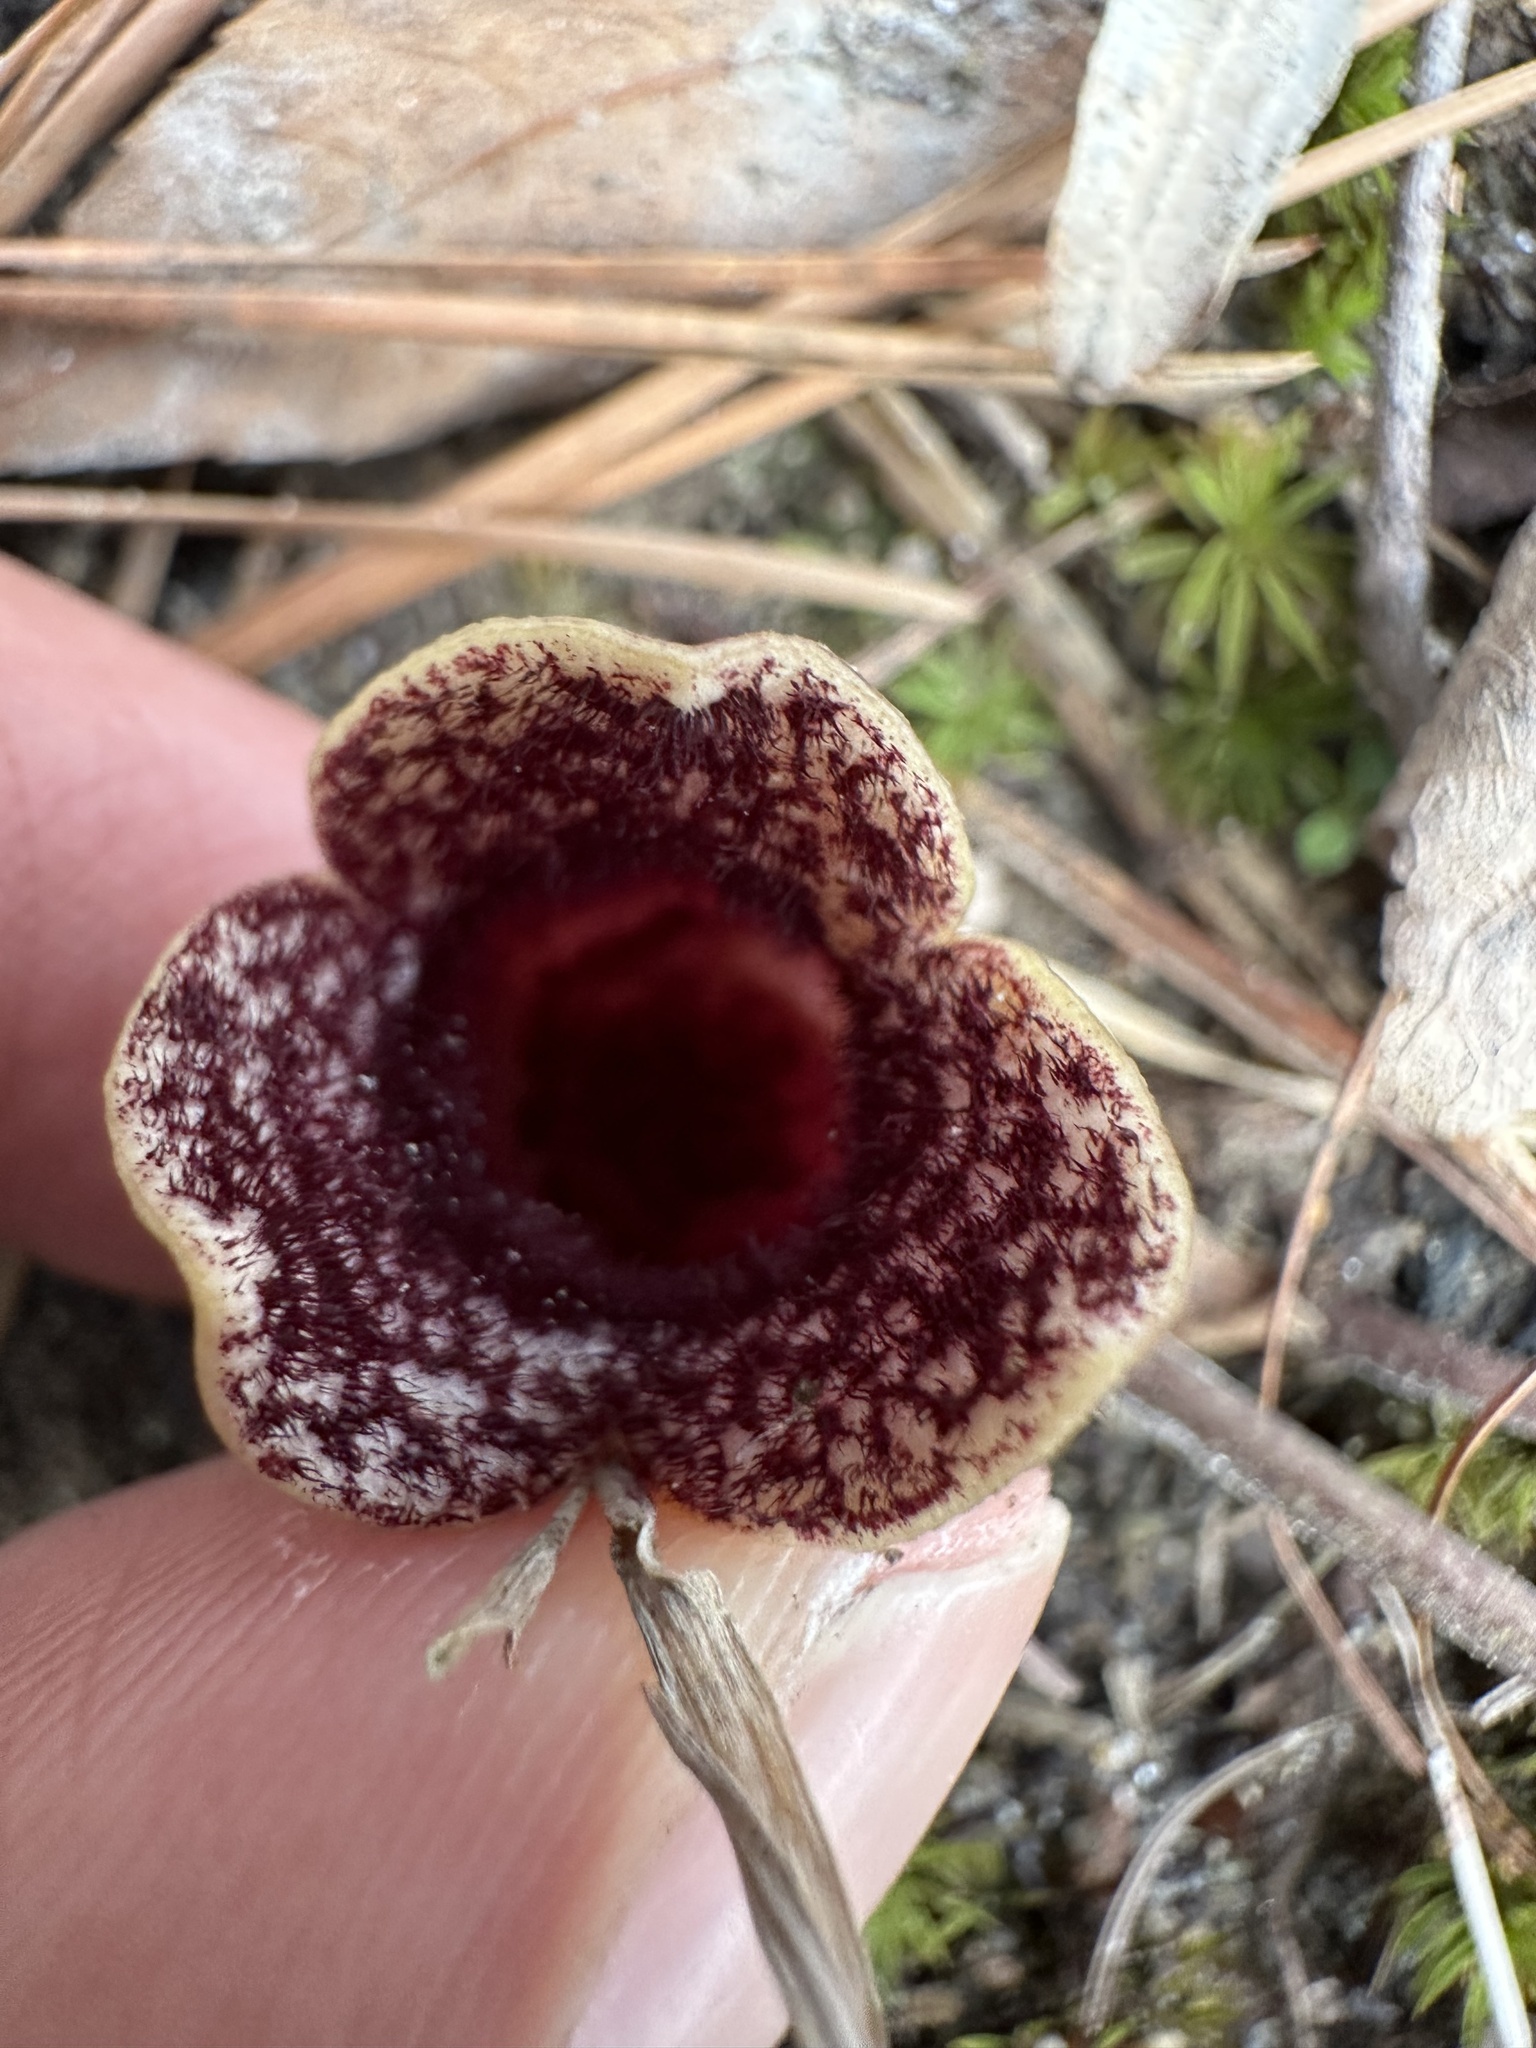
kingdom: Plantae
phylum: Tracheophyta
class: Magnoliopsida
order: Piperales
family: Aristolochiaceae
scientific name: Aristolochiaceae
